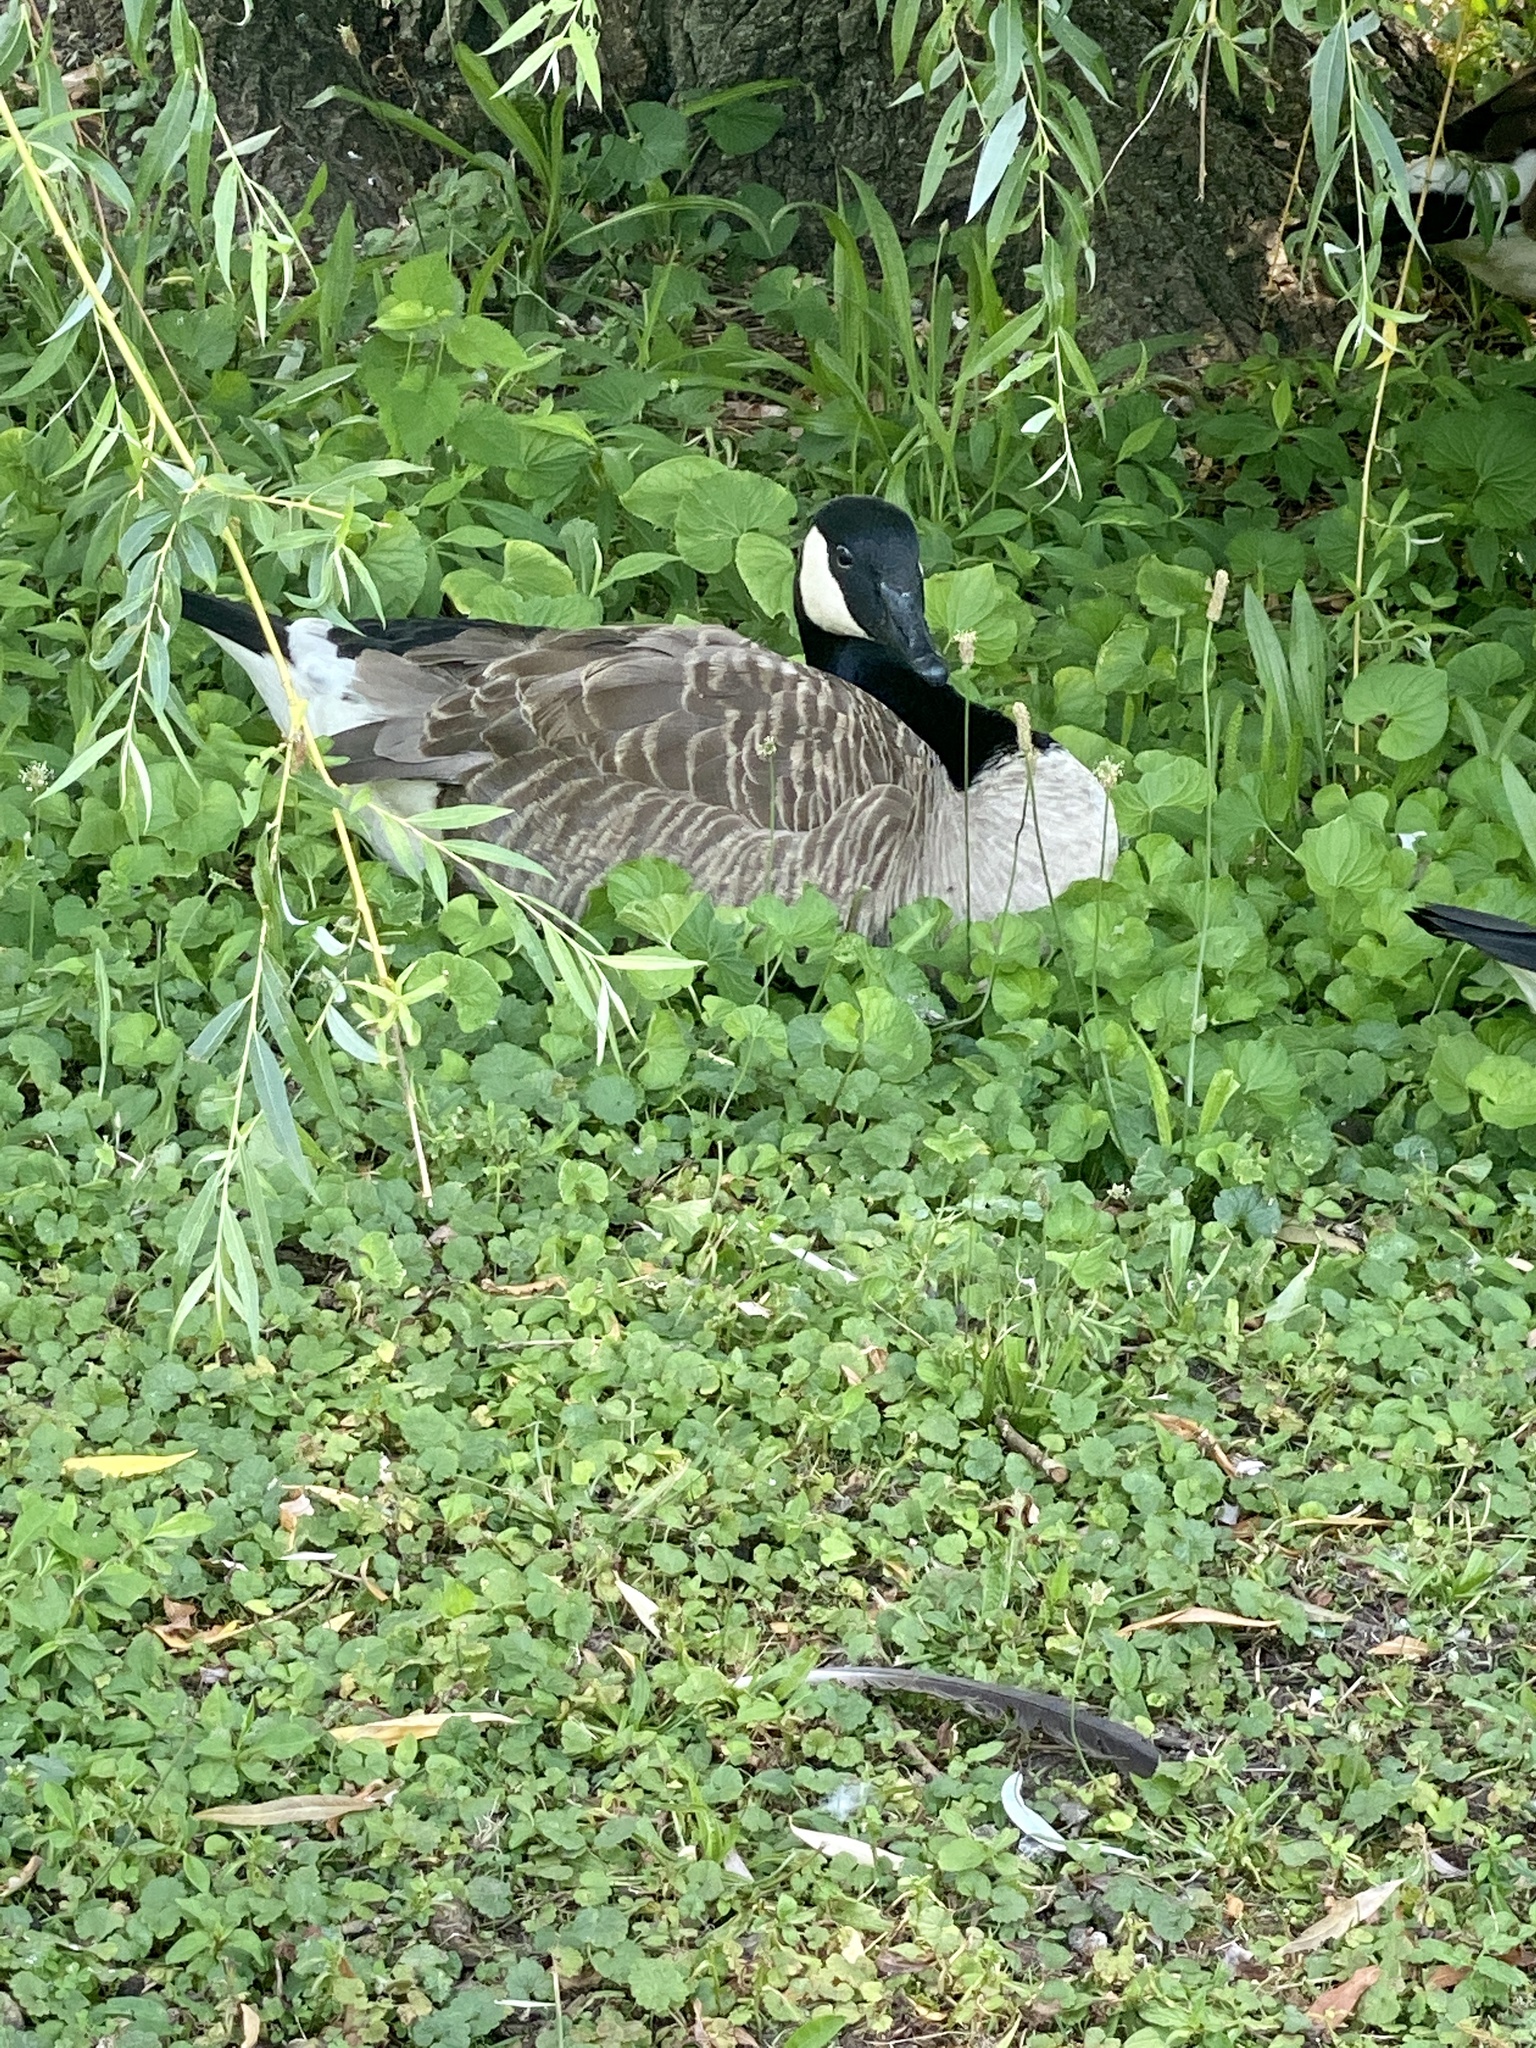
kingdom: Animalia
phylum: Chordata
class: Aves
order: Anseriformes
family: Anatidae
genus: Branta
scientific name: Branta canadensis
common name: Canada goose
